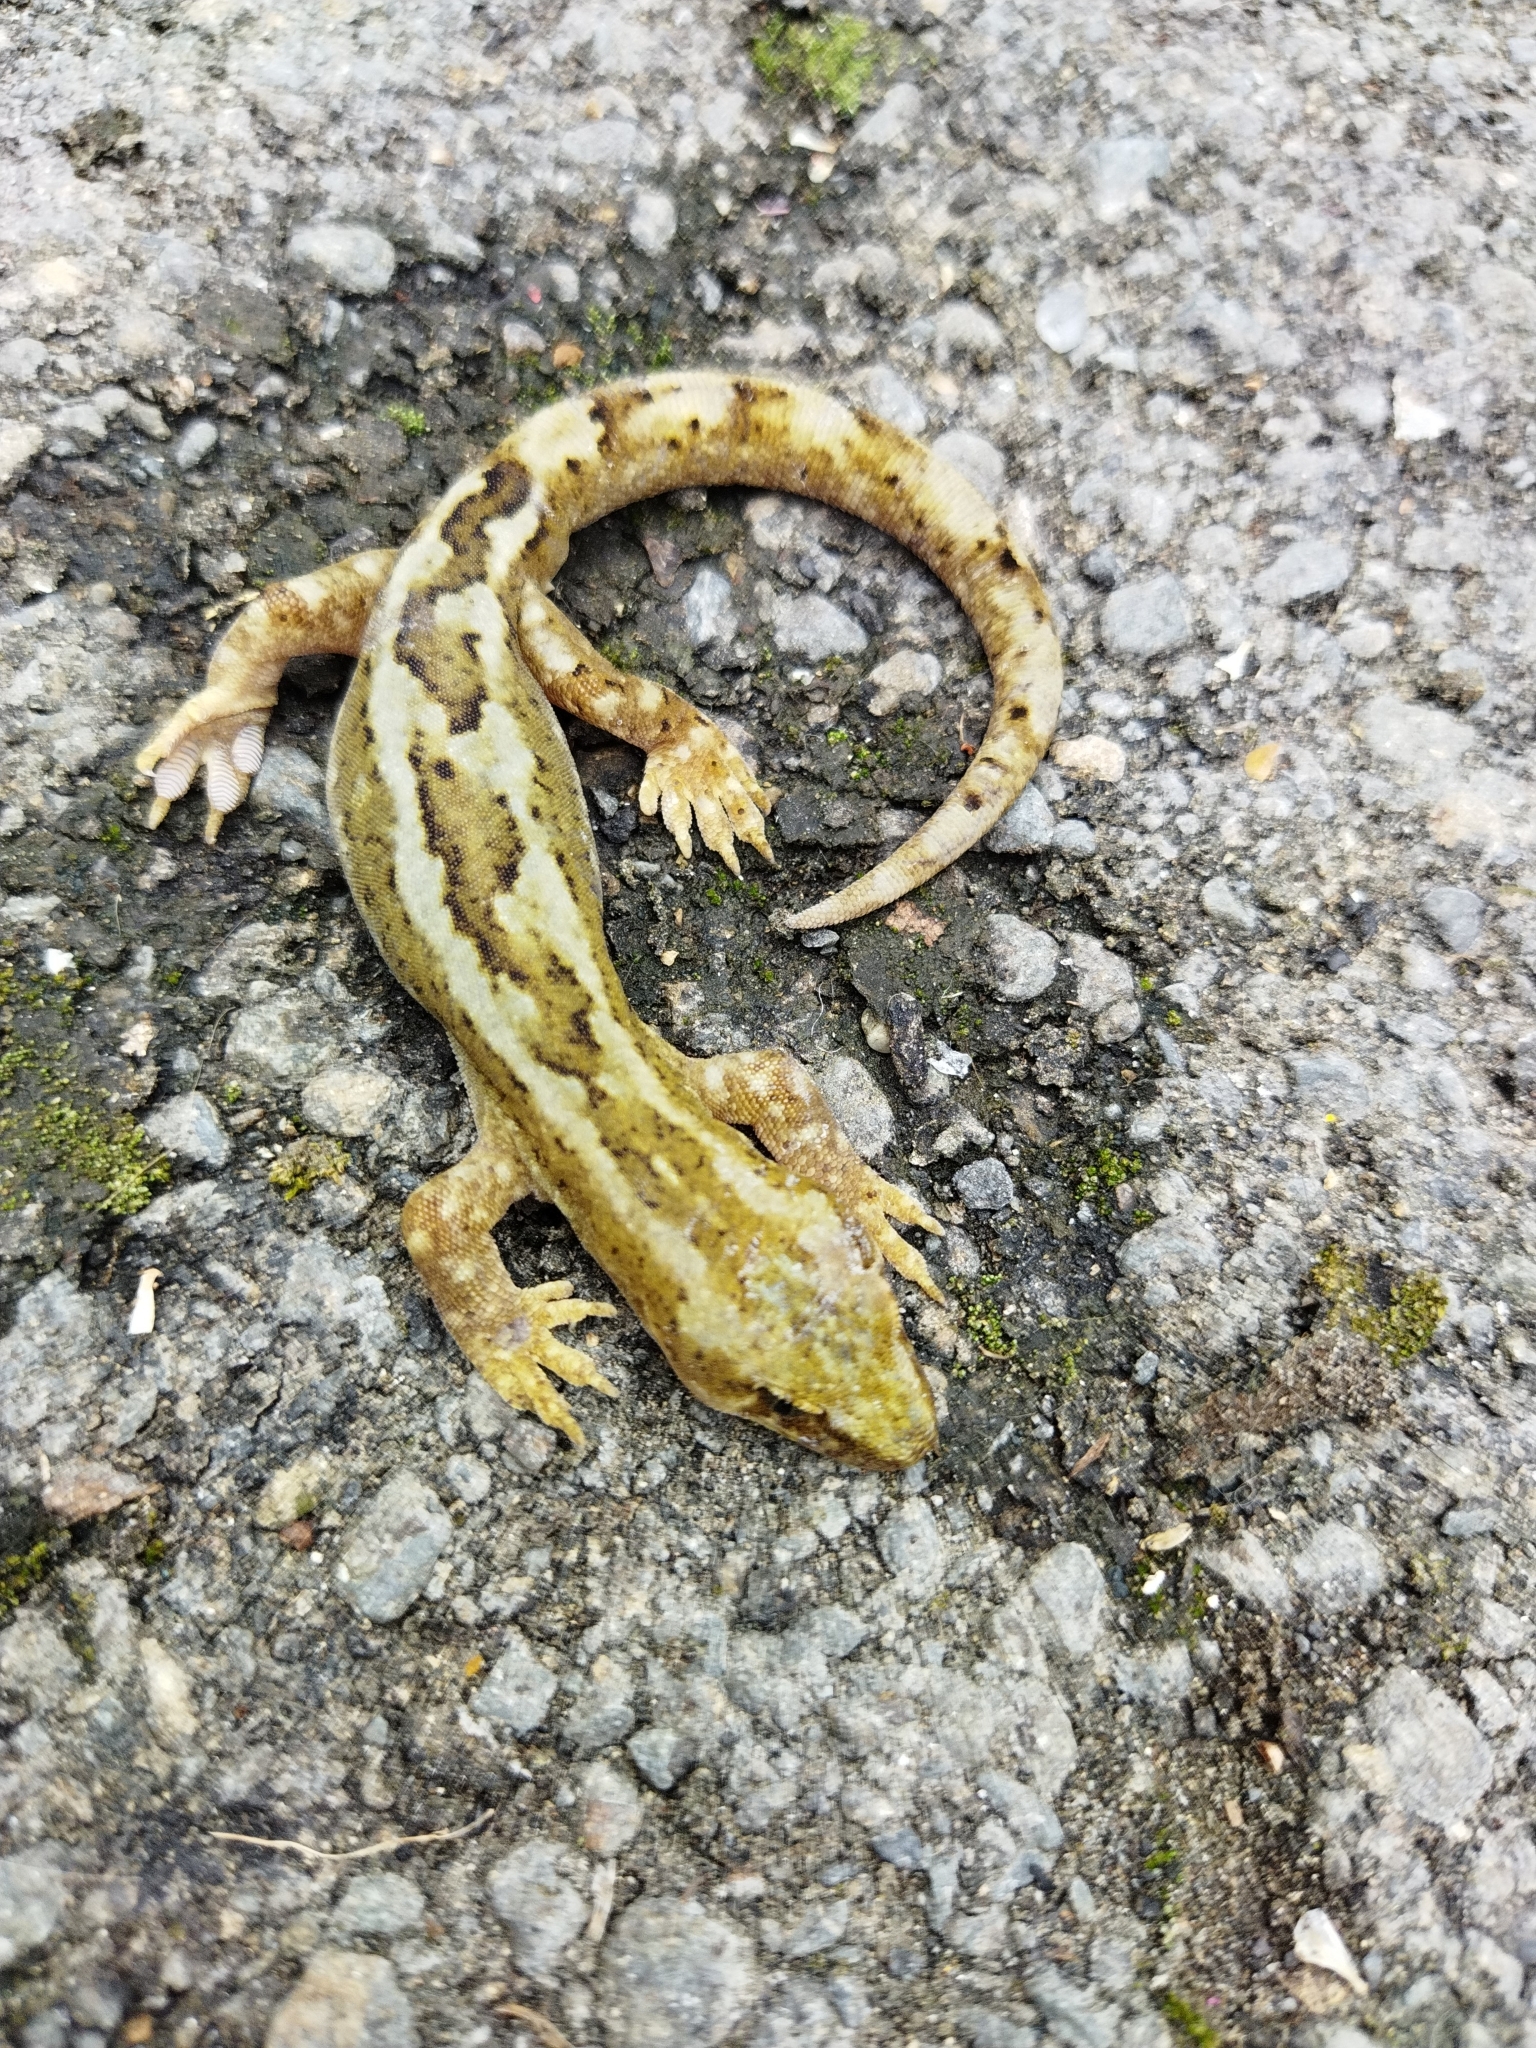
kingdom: Animalia
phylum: Chordata
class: Squamata
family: Diplodactylidae
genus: Woodworthia
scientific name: Woodworthia maculata
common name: Raukawa gecko
